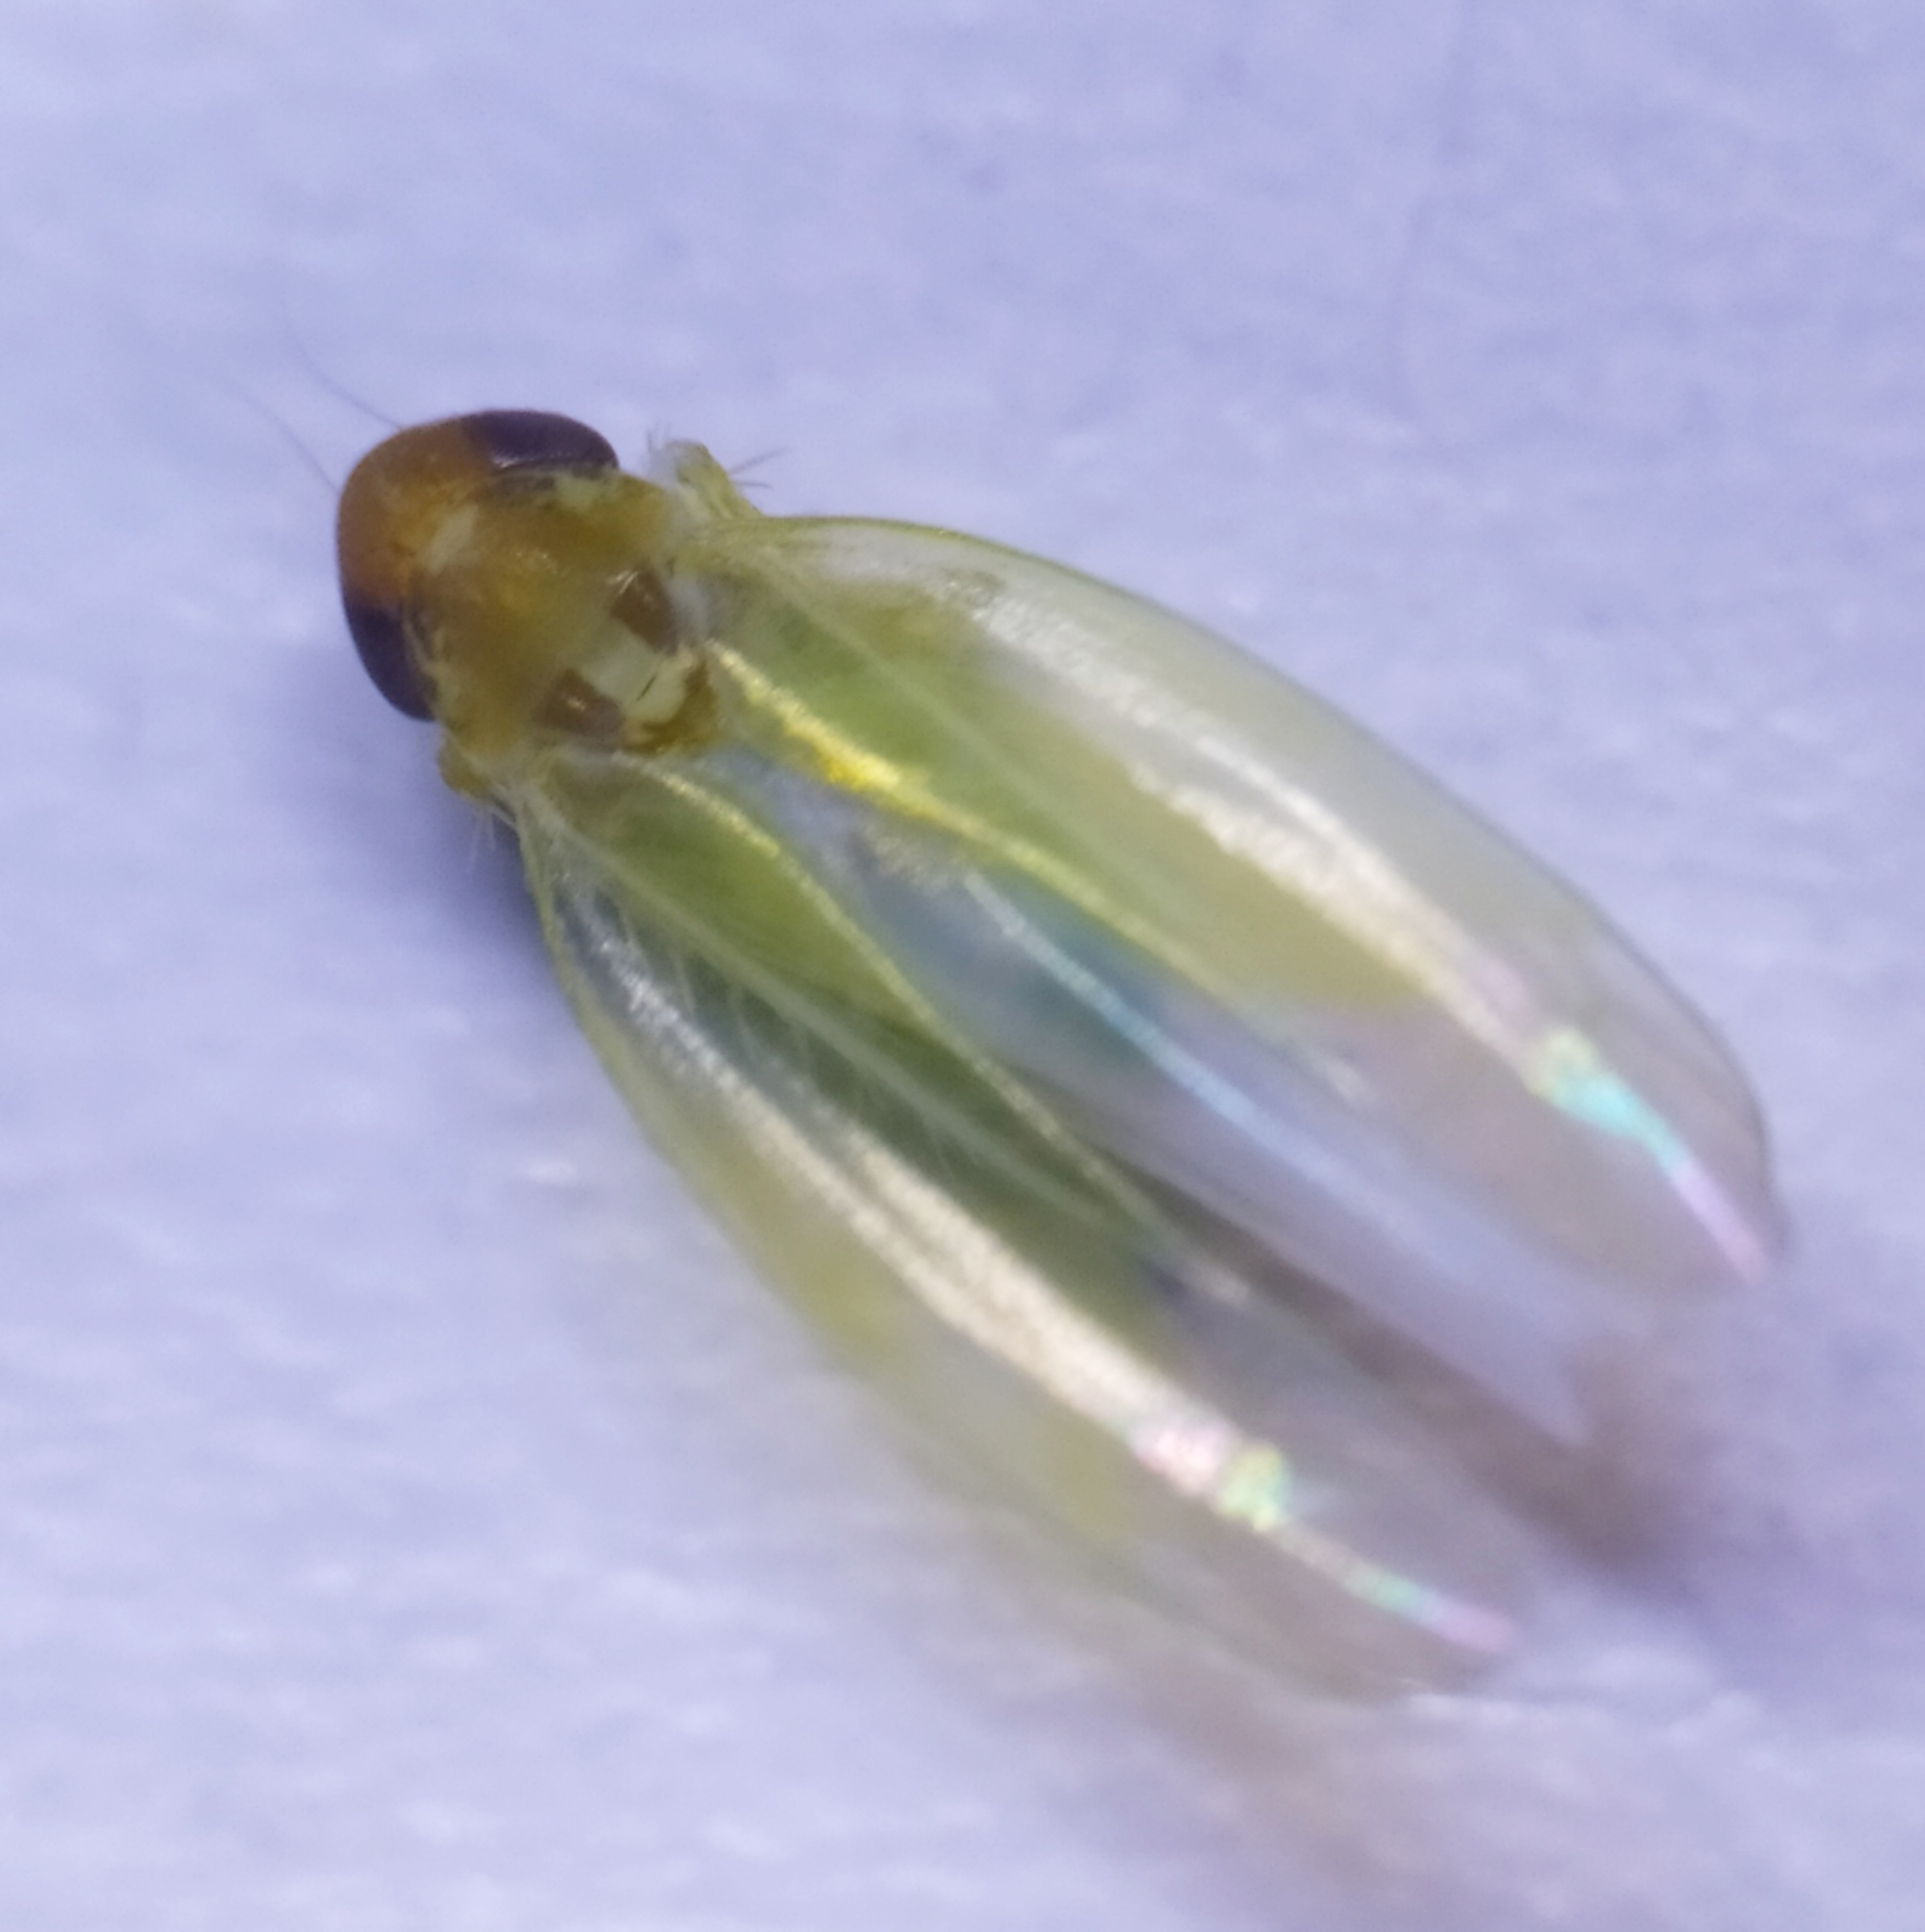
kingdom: Animalia
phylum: Arthropoda
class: Insecta
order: Hemiptera
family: Cicadellidae
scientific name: Cicadellidae
